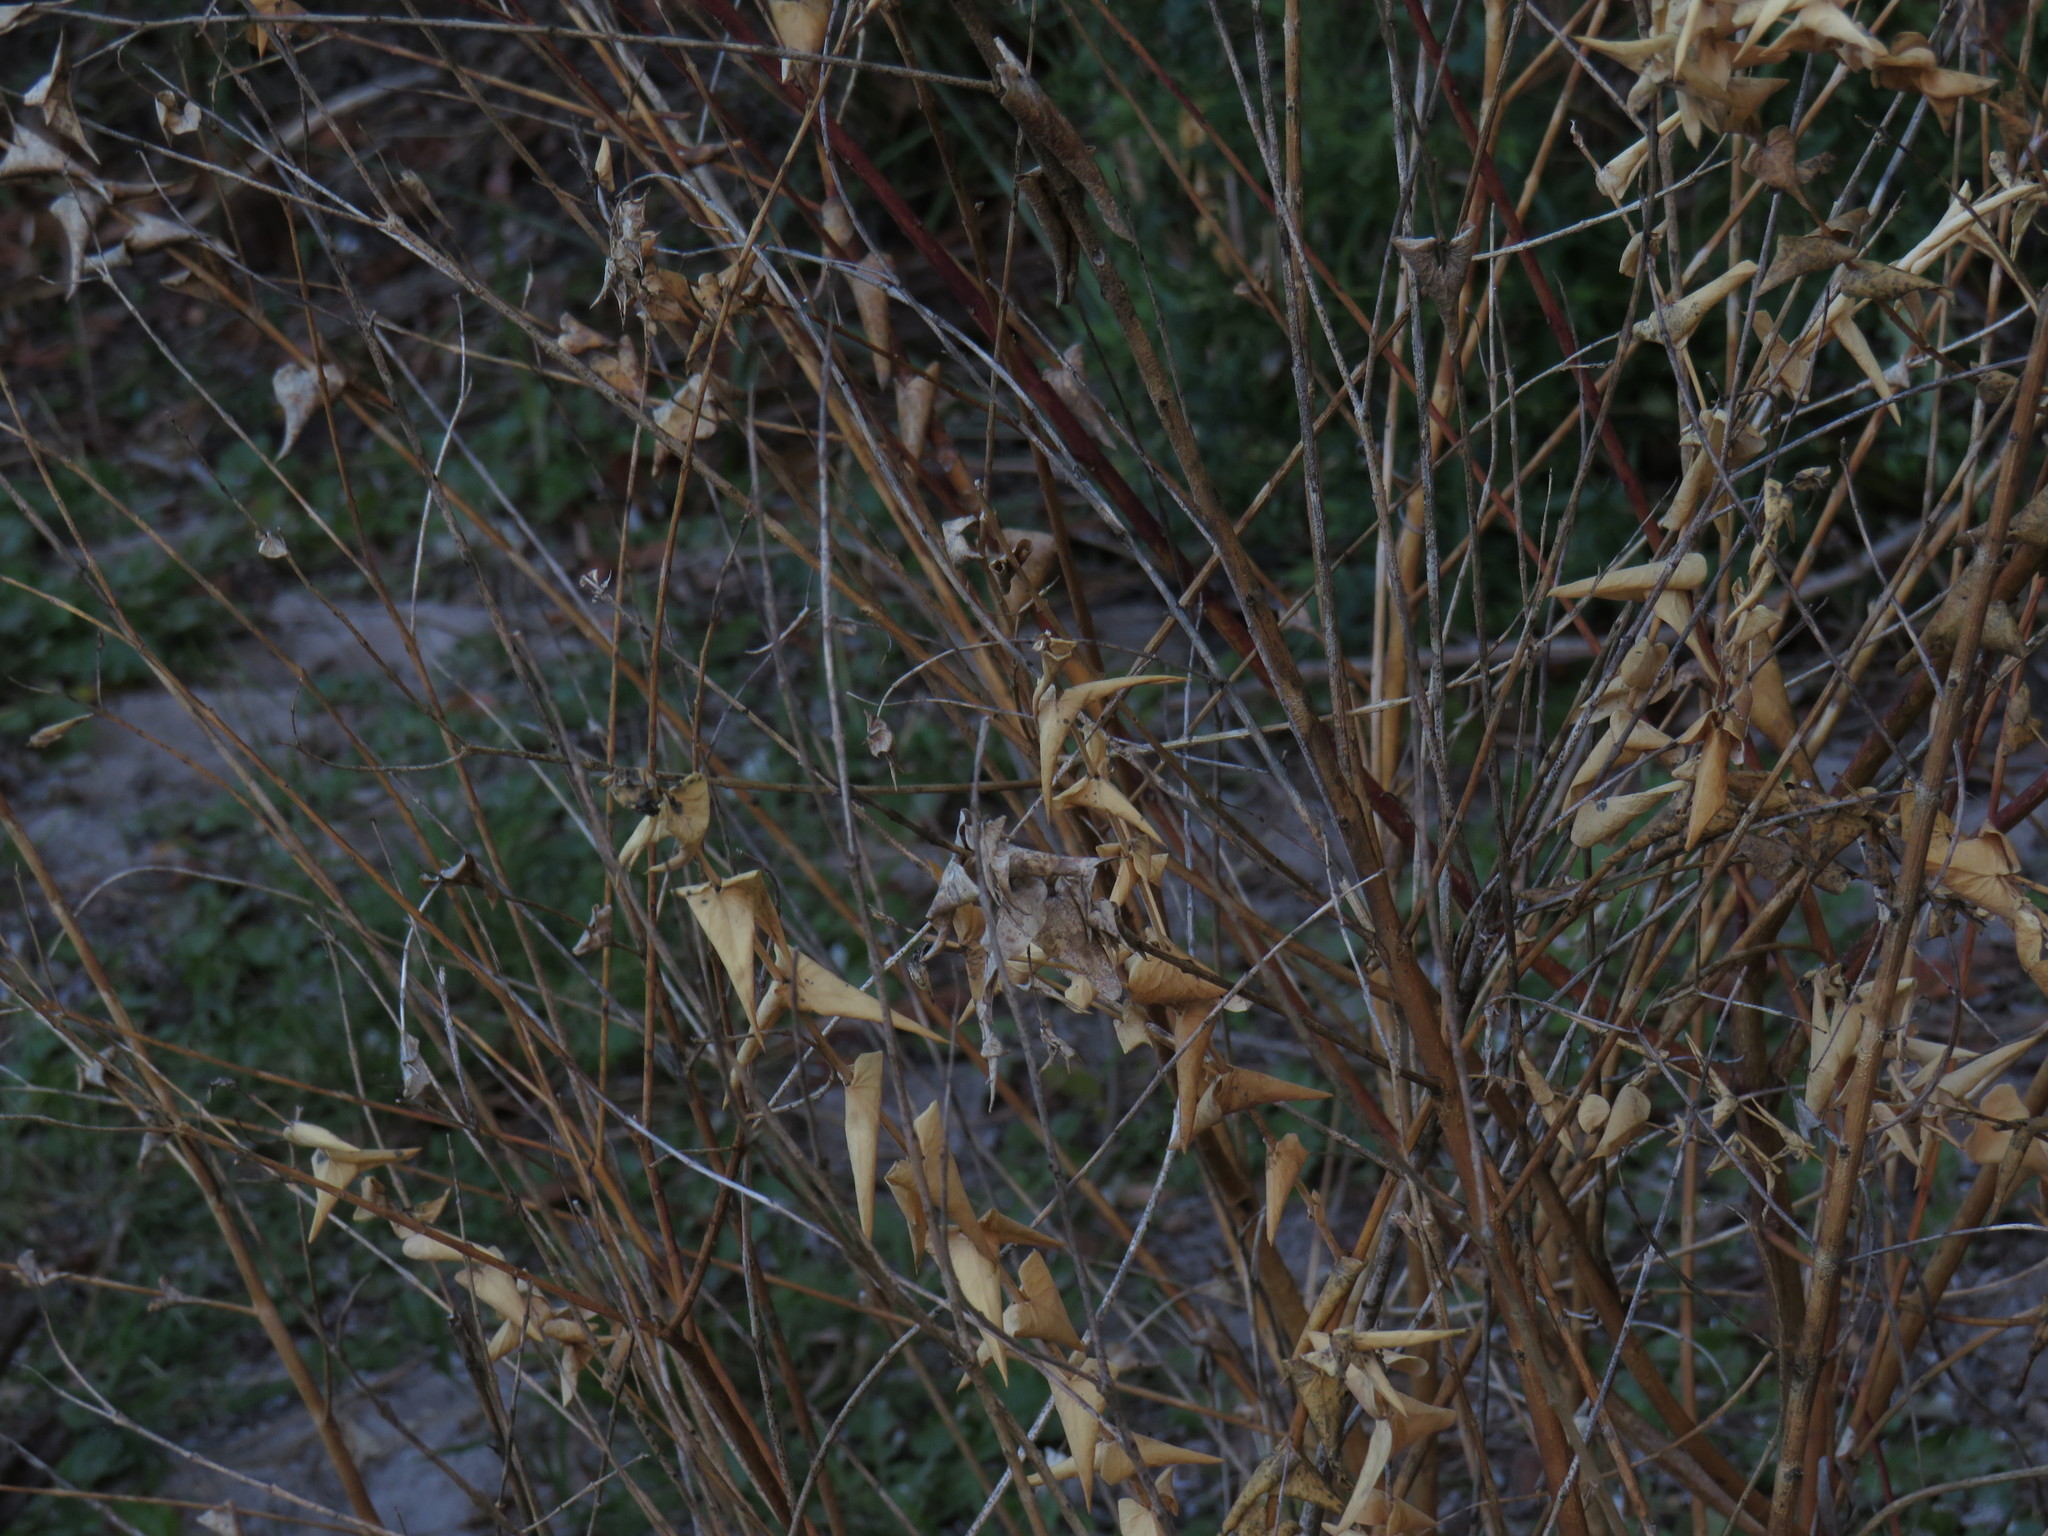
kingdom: Plantae
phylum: Tracheophyta
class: Magnoliopsida
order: Fabales
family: Polygalaceae
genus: Polygala
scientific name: Polygala fruticosa
